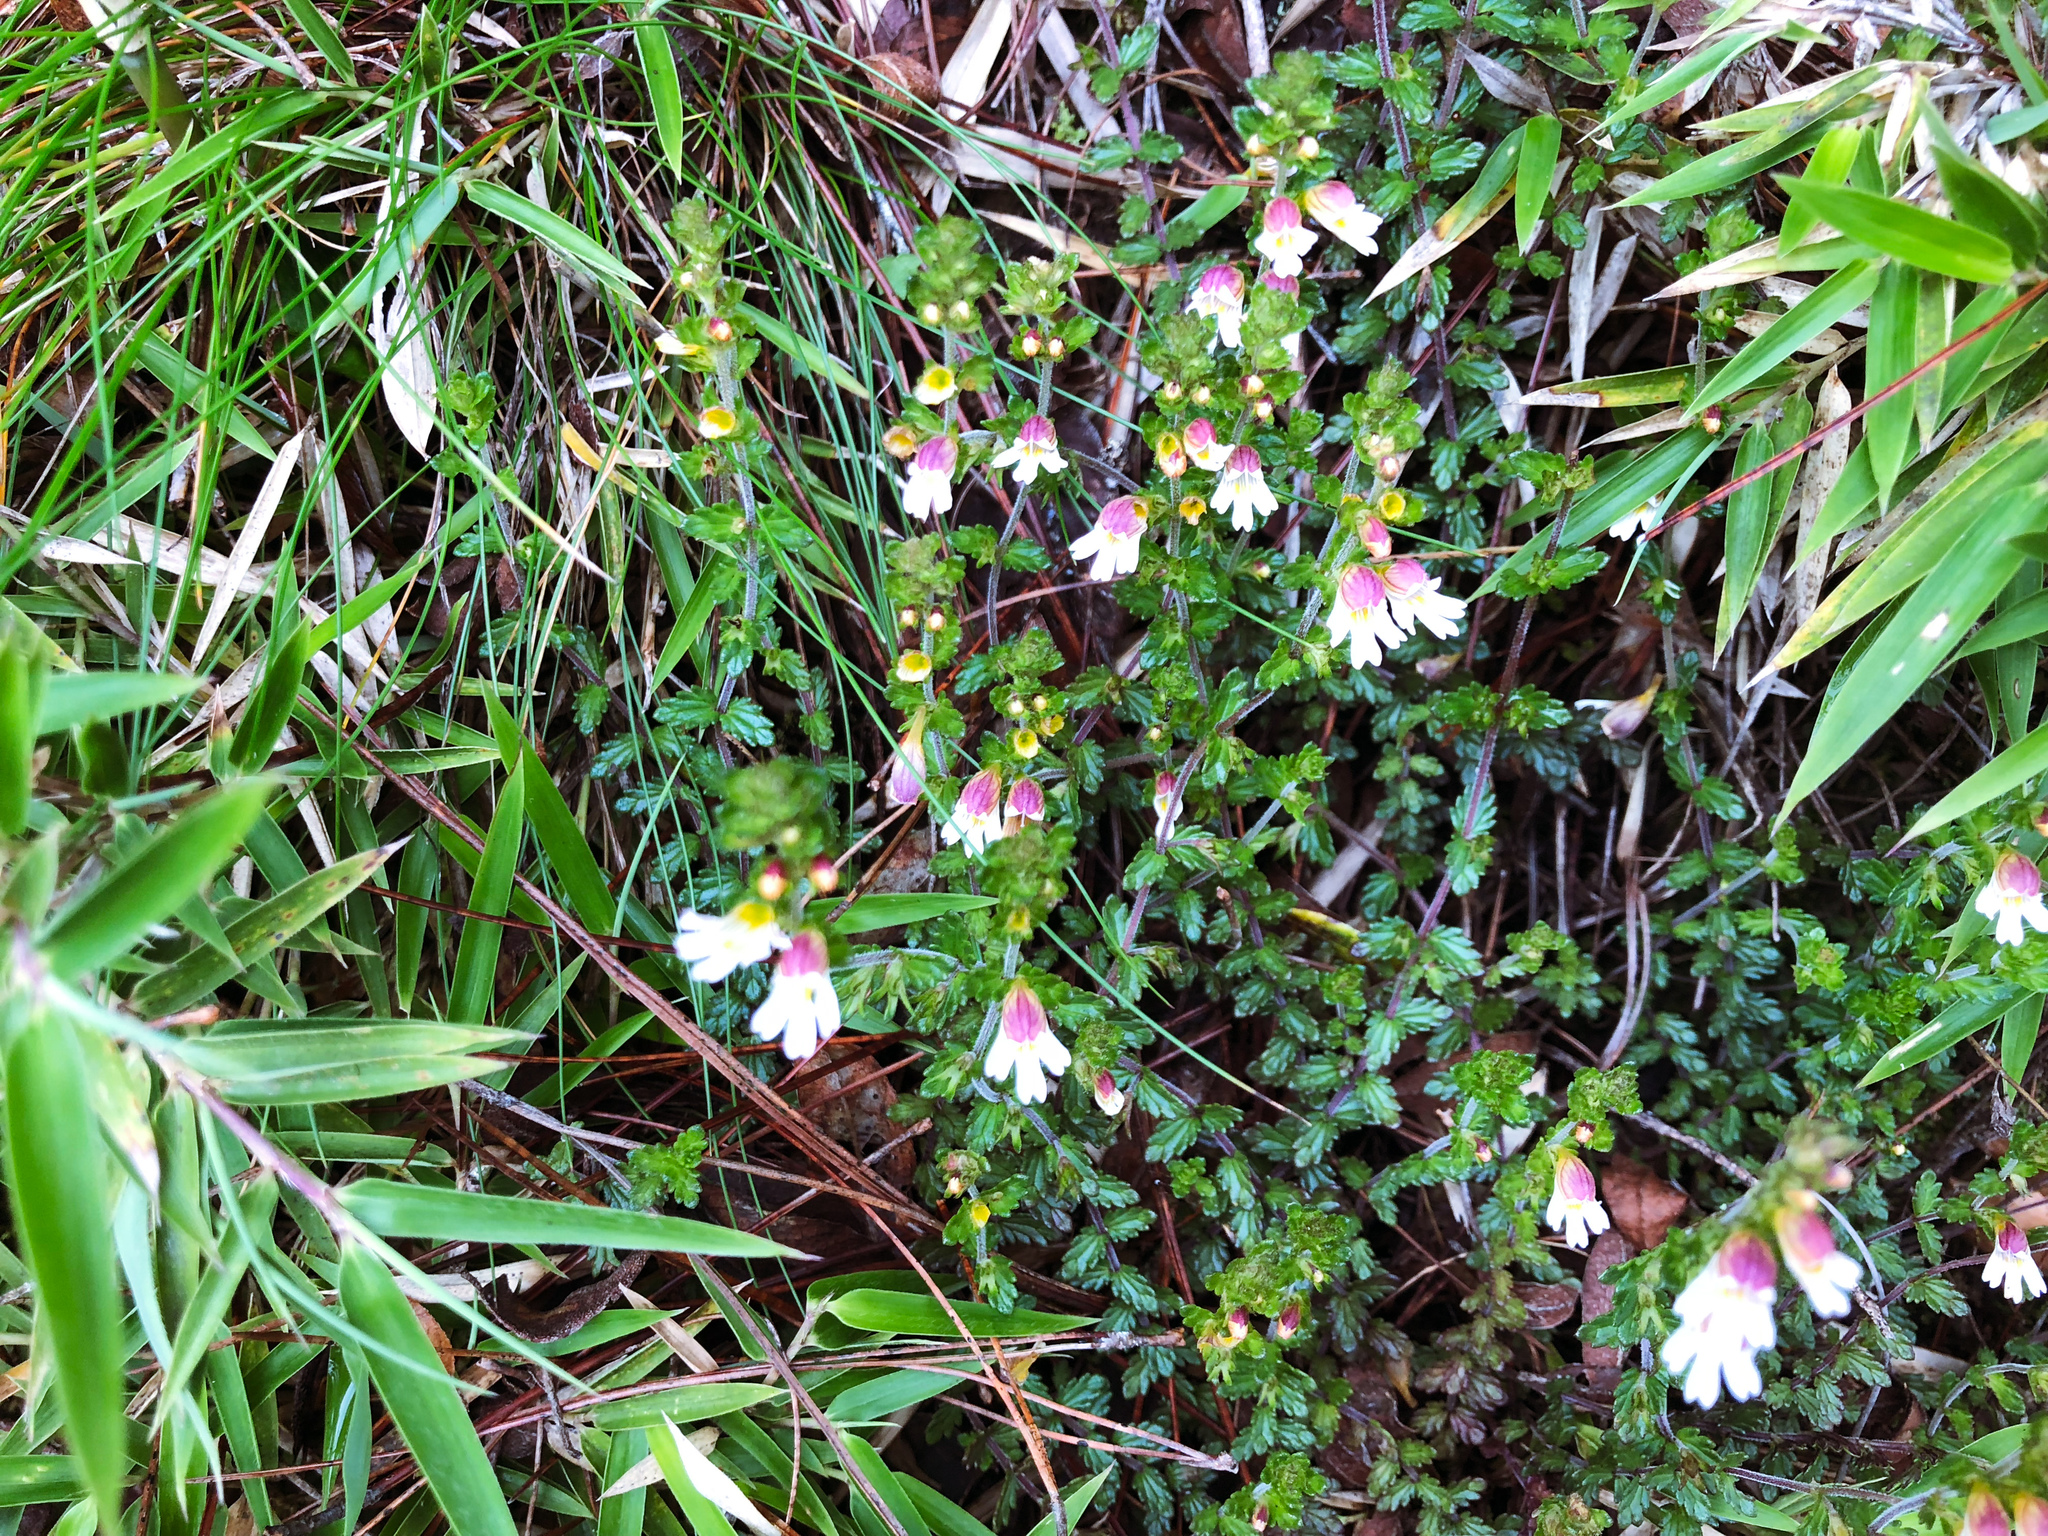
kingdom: Plantae
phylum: Tracheophyta
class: Magnoliopsida
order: Lamiales
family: Orobanchaceae
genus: Euphrasia
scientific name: Euphrasia transmorrisonensis
